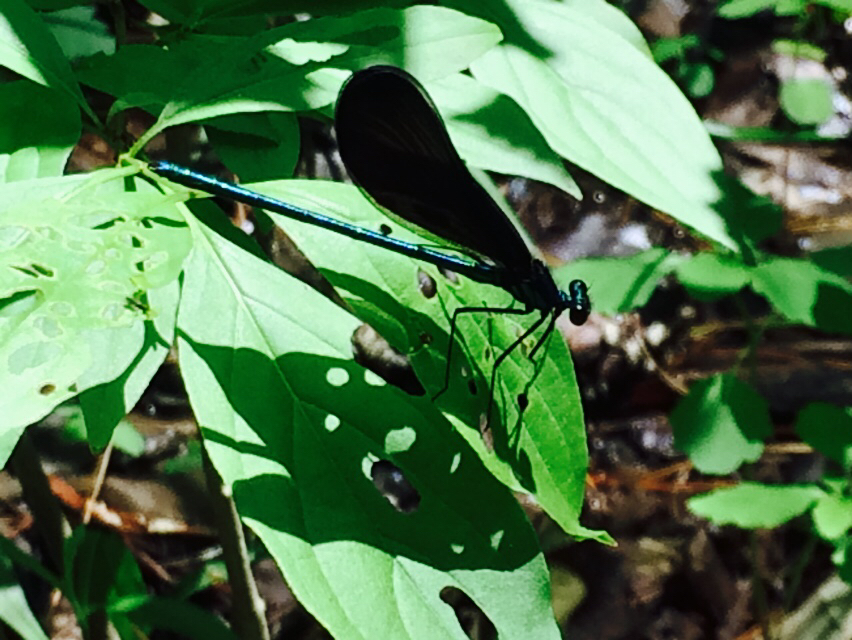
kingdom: Animalia
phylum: Arthropoda
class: Insecta
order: Odonata
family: Calopterygidae
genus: Calopteryx
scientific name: Calopteryx maculata
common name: Ebony jewelwing
